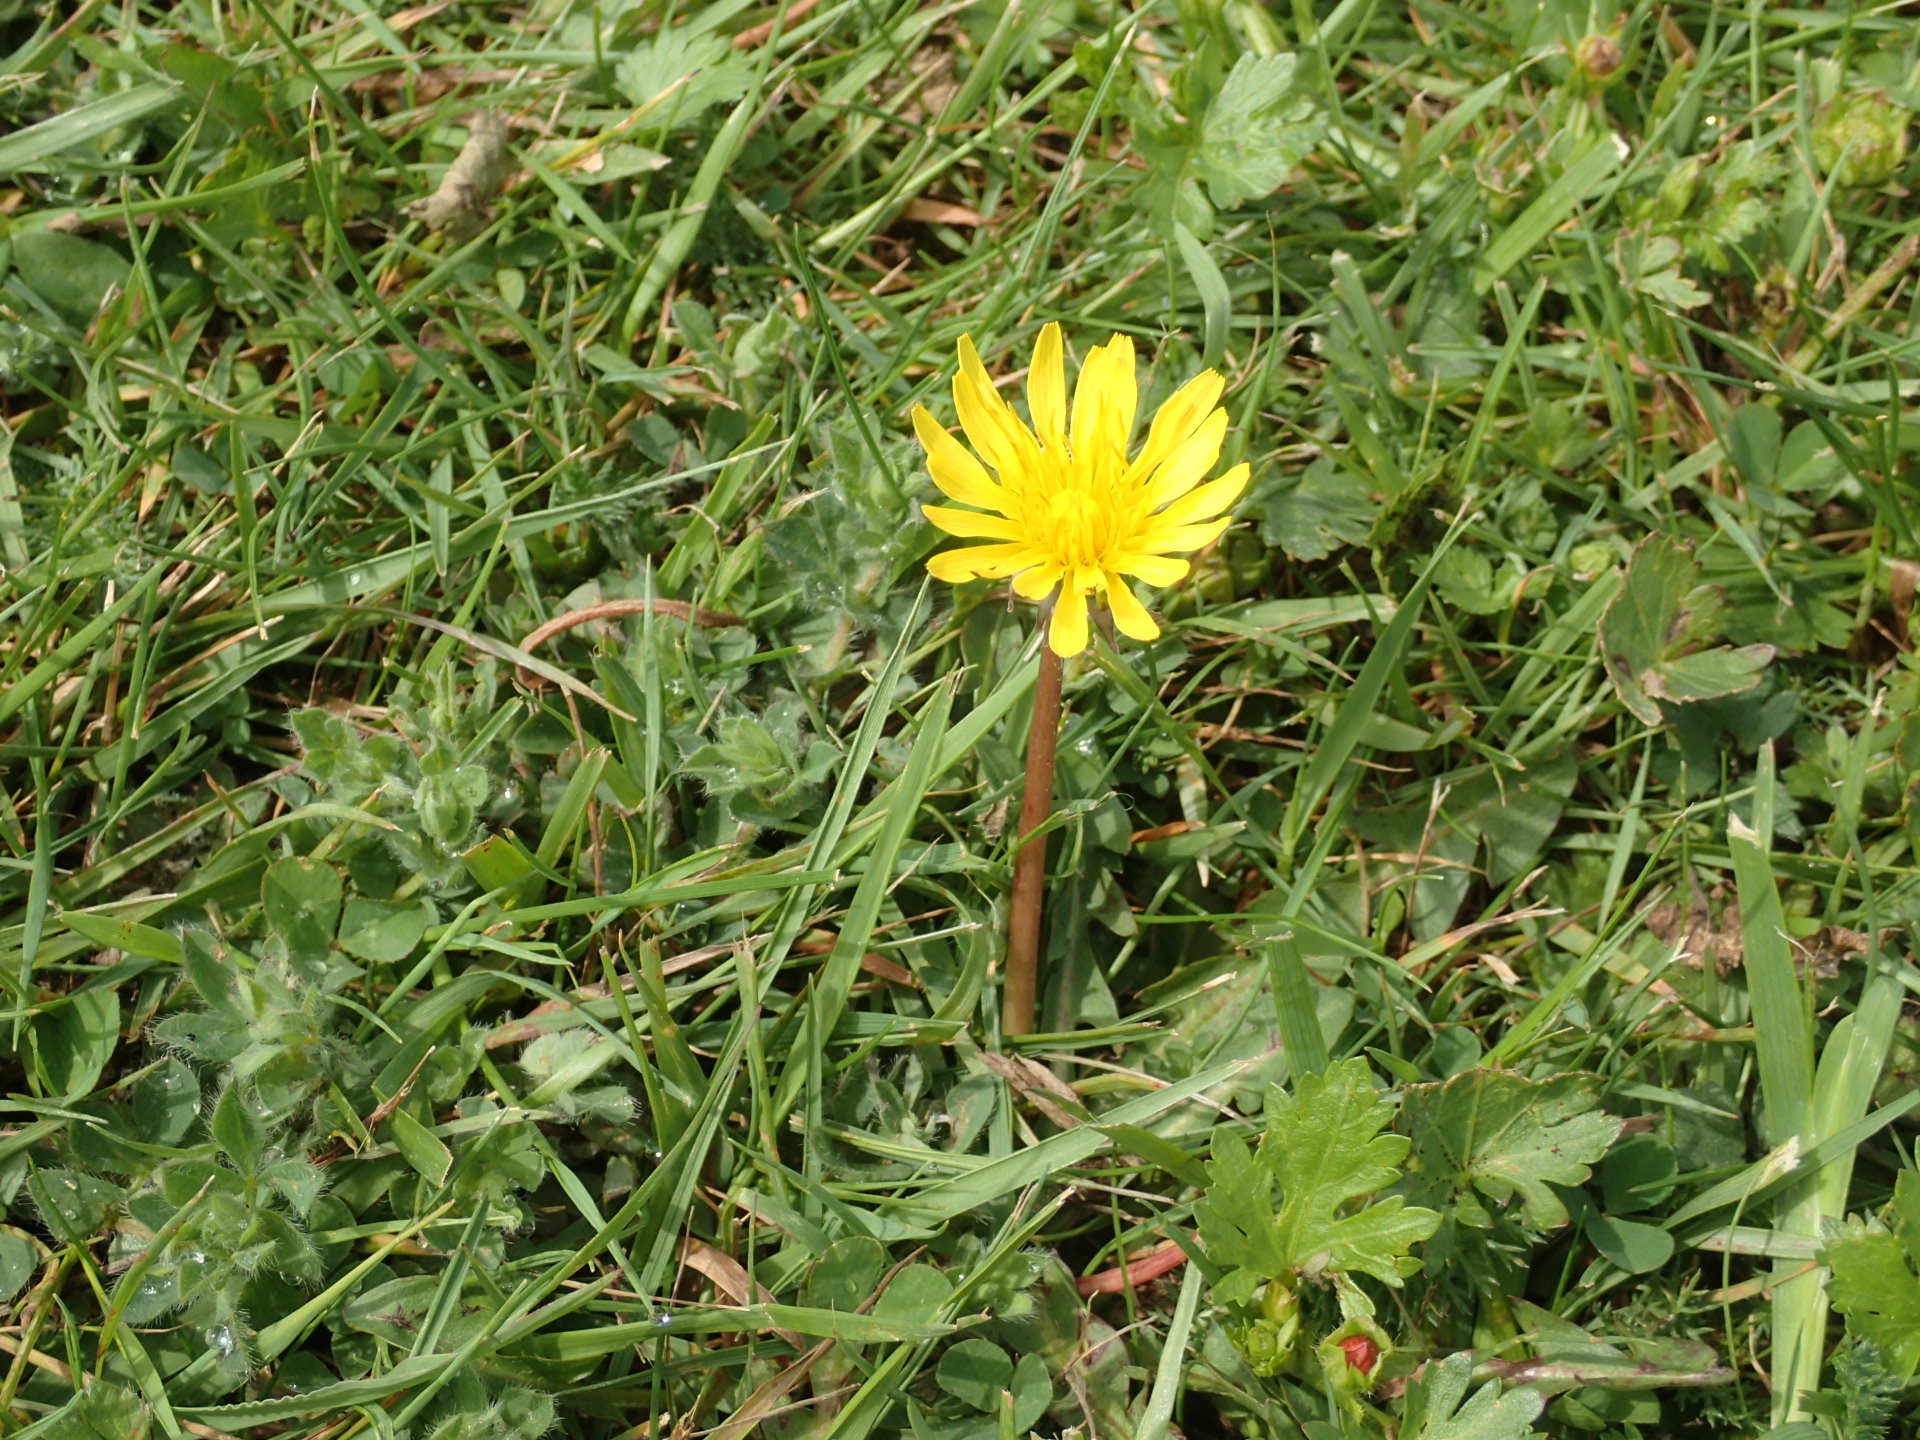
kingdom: Plantae
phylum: Tracheophyta
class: Magnoliopsida
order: Asterales
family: Asteraceae
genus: Taraxacum
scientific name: Taraxacum officinale
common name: Common dandelion
